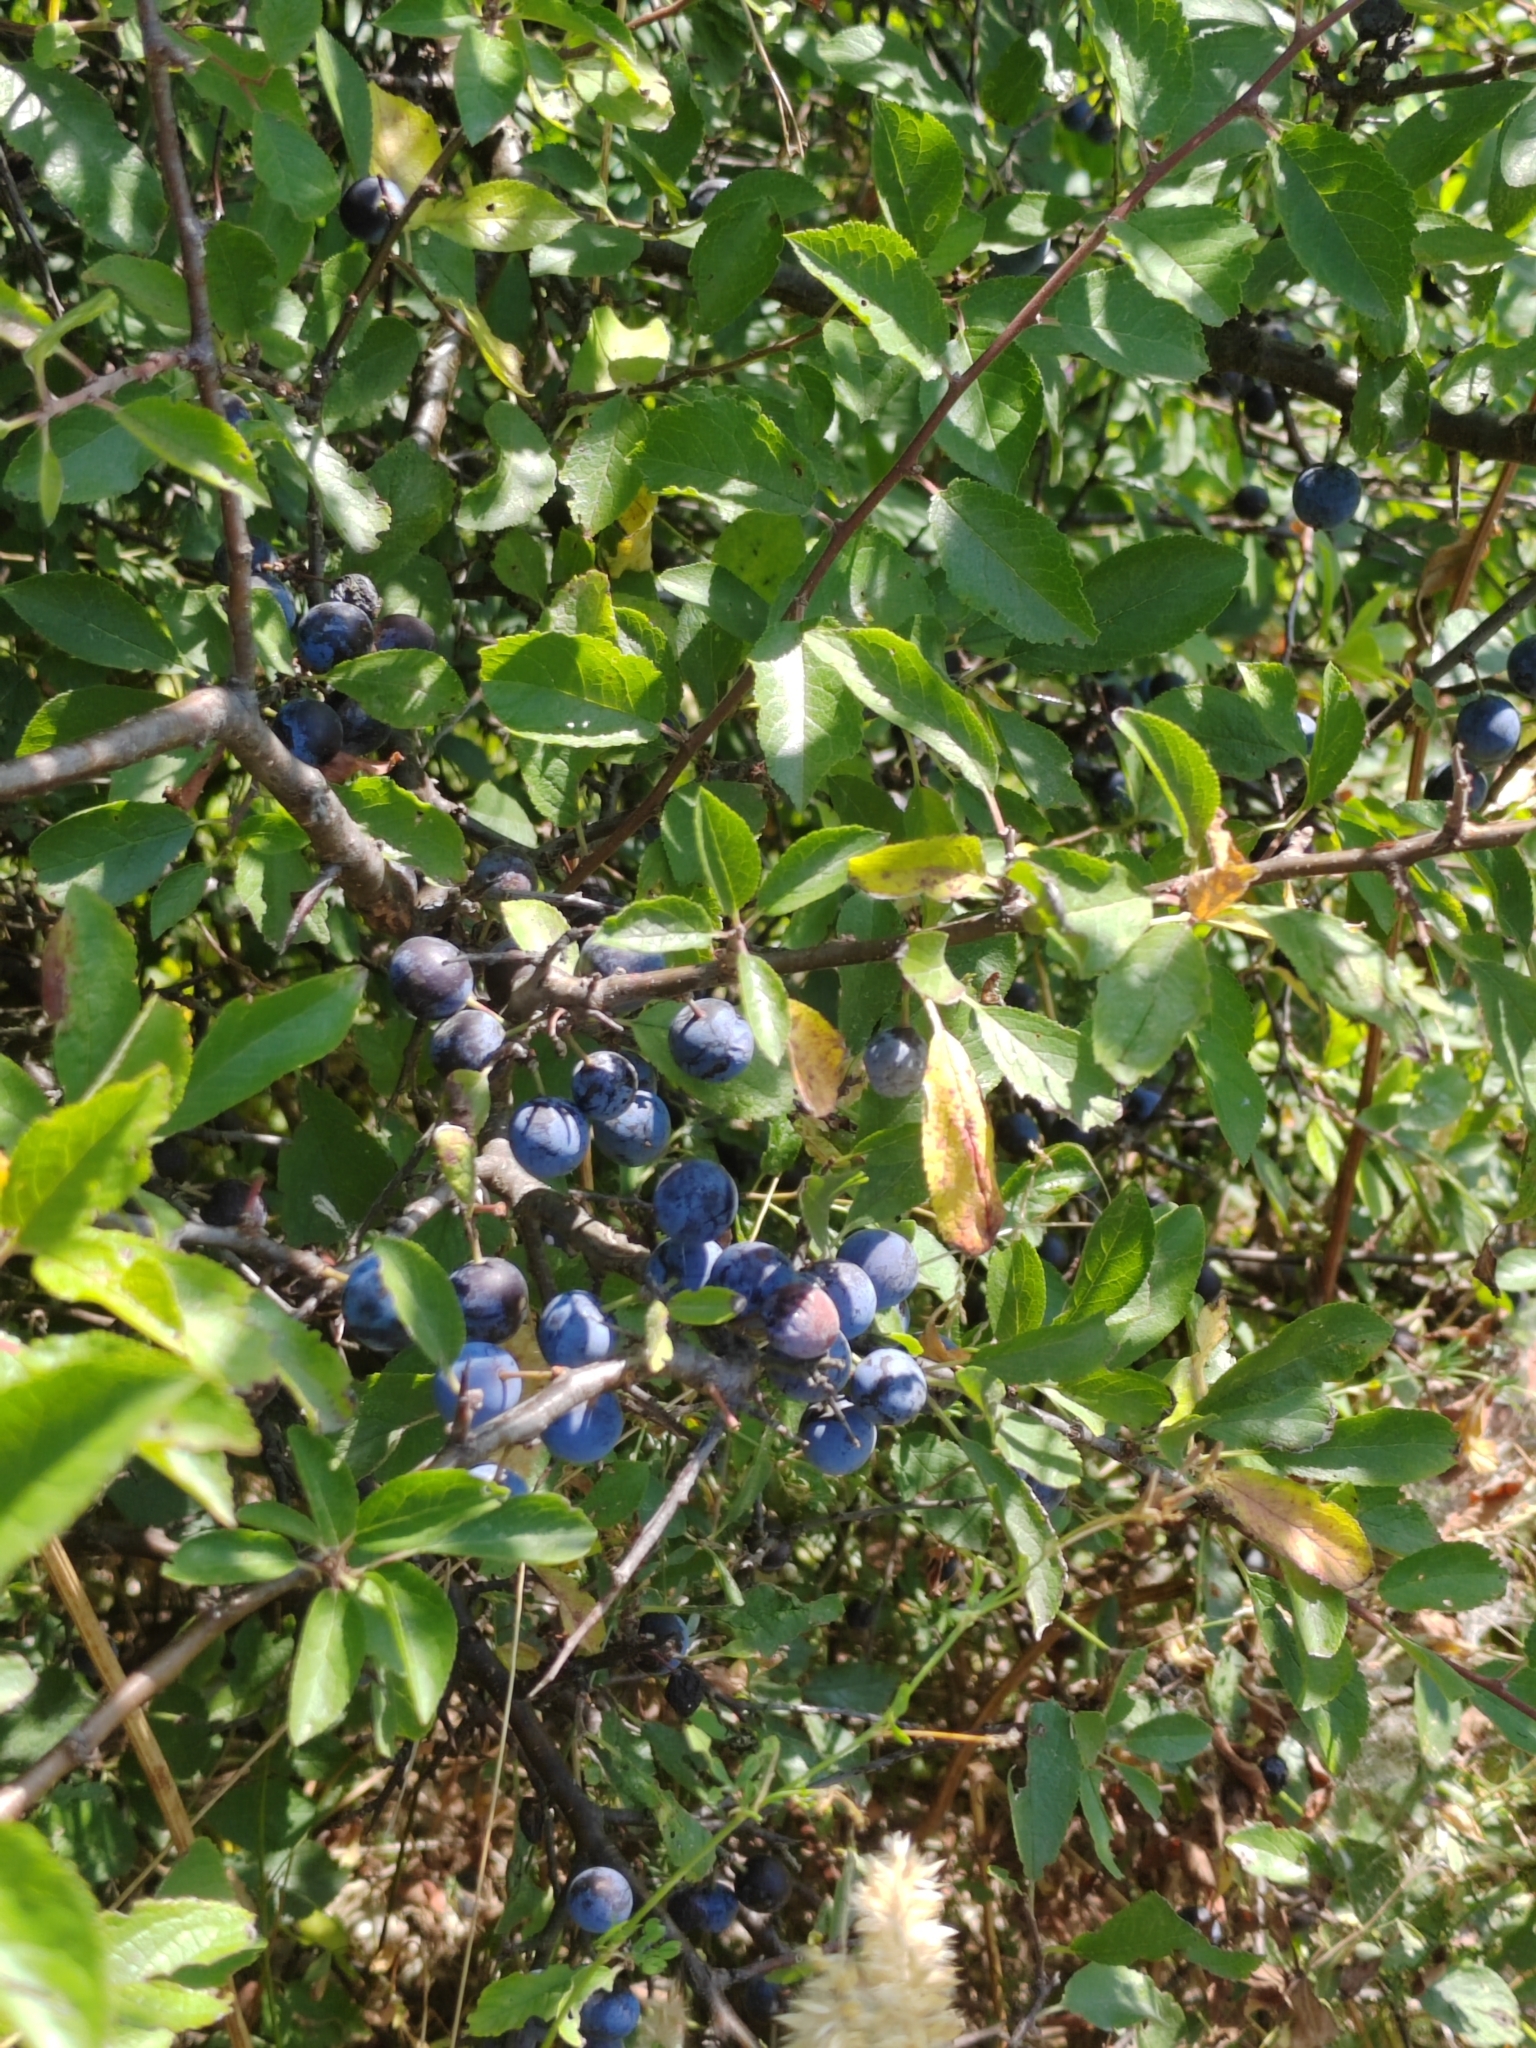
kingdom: Plantae
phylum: Tracheophyta
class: Magnoliopsida
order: Rosales
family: Rosaceae
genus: Prunus
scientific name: Prunus spinosa
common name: Blackthorn
